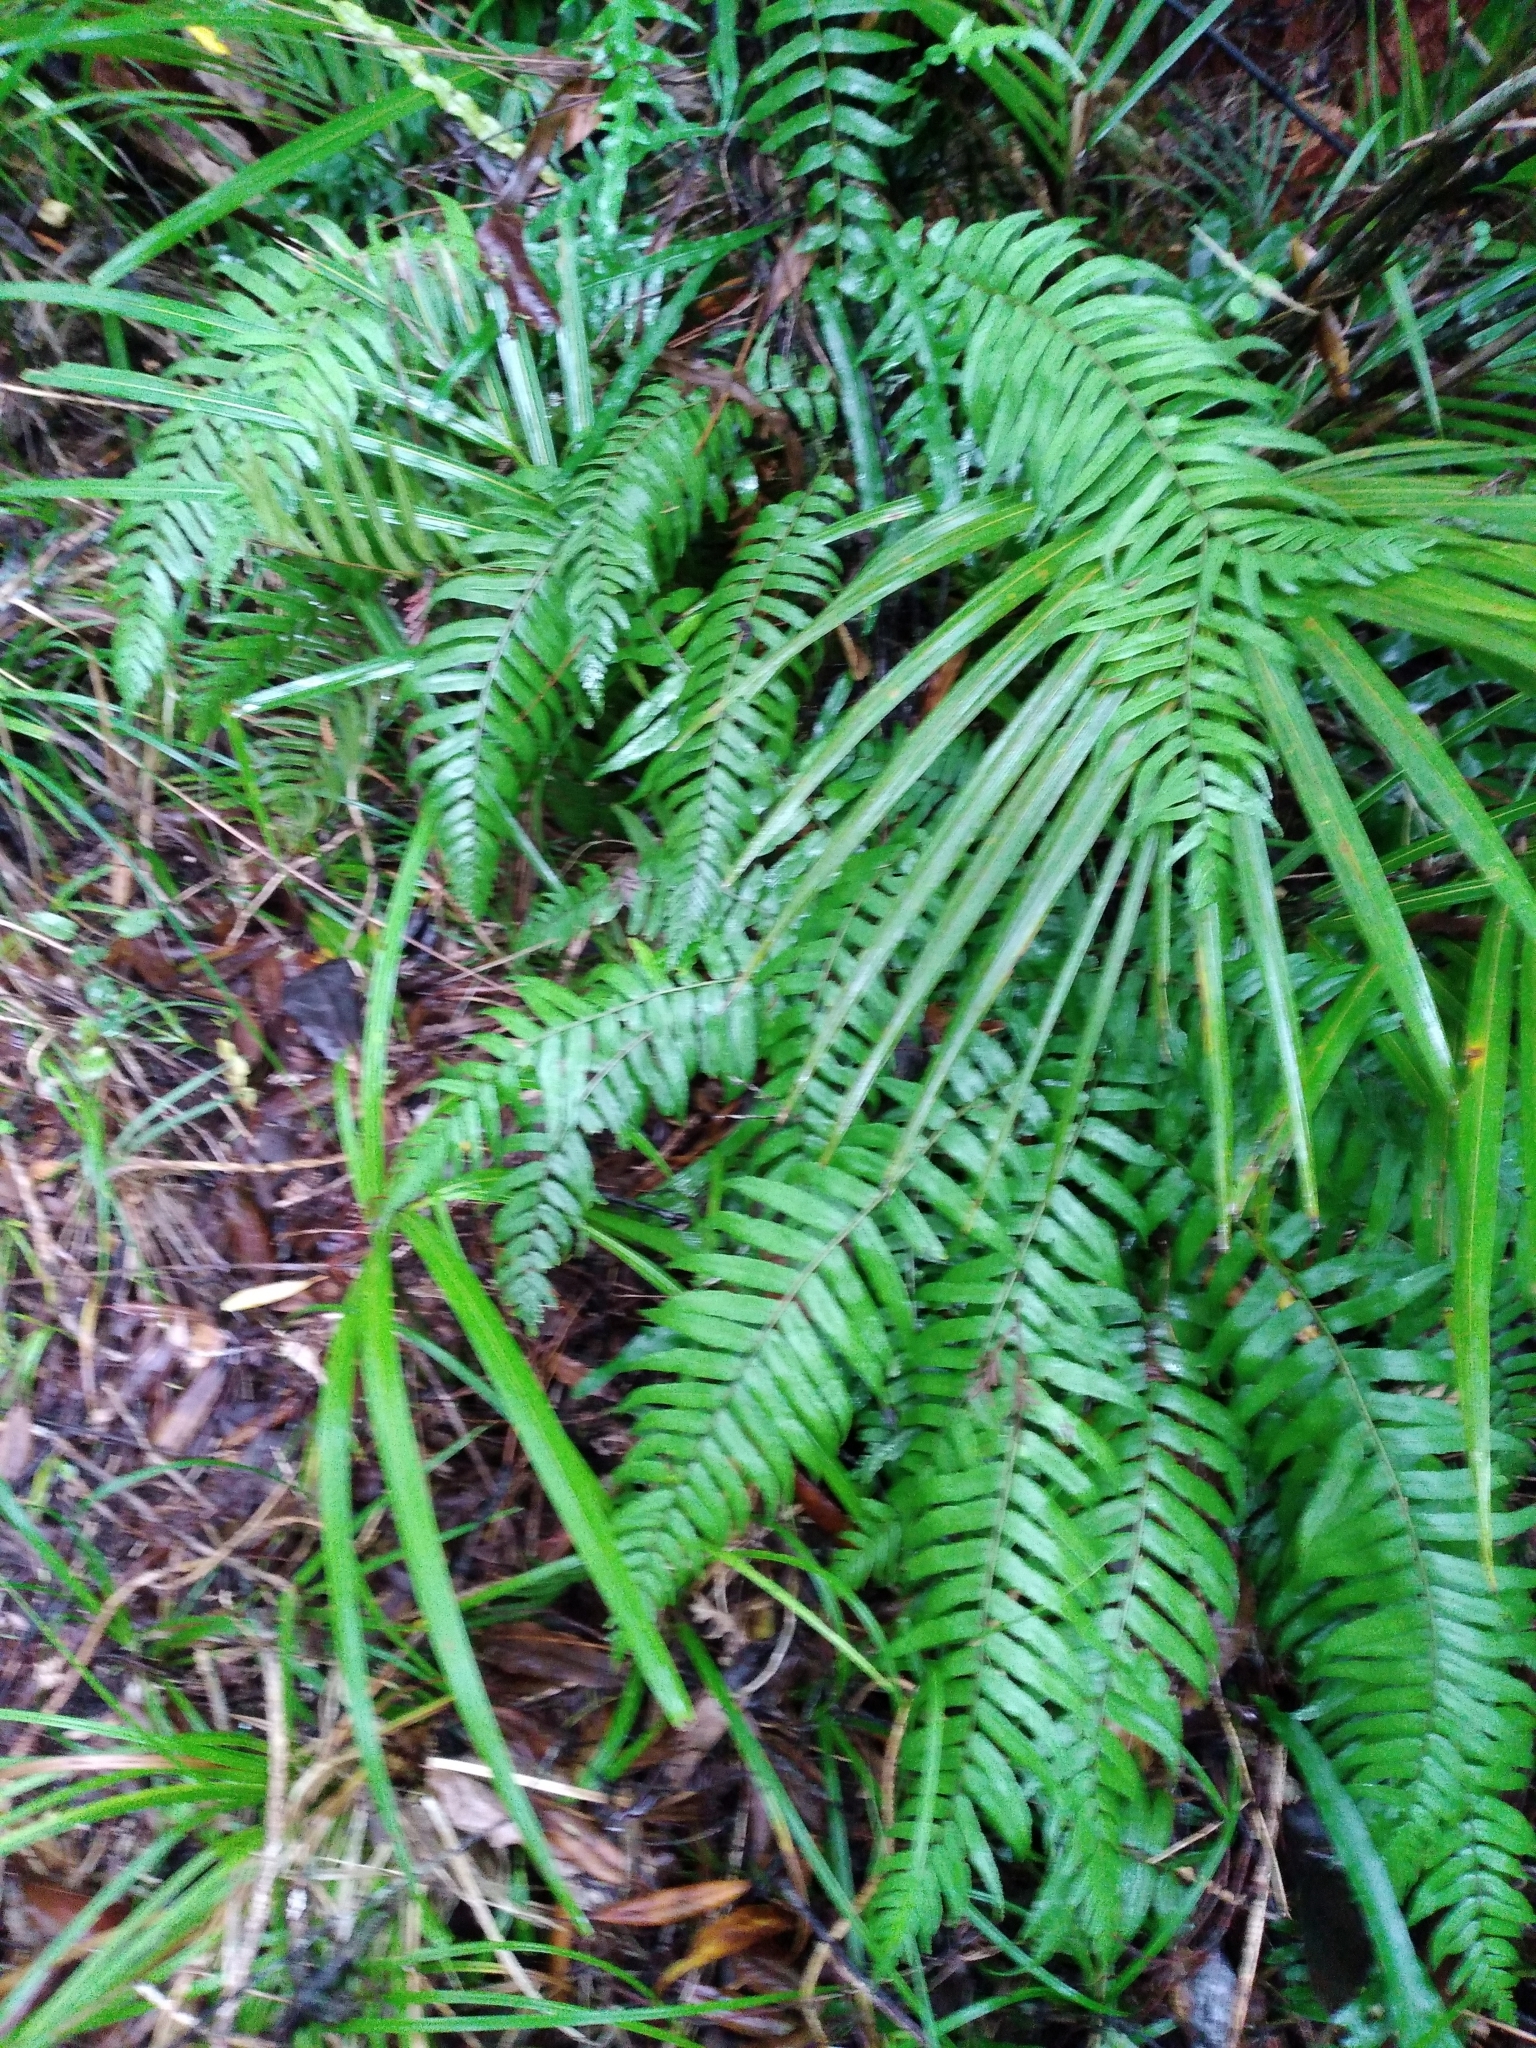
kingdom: Plantae
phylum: Tracheophyta
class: Polypodiopsida
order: Polypodiales
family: Blechnaceae
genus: Icarus
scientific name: Icarus filiformis
